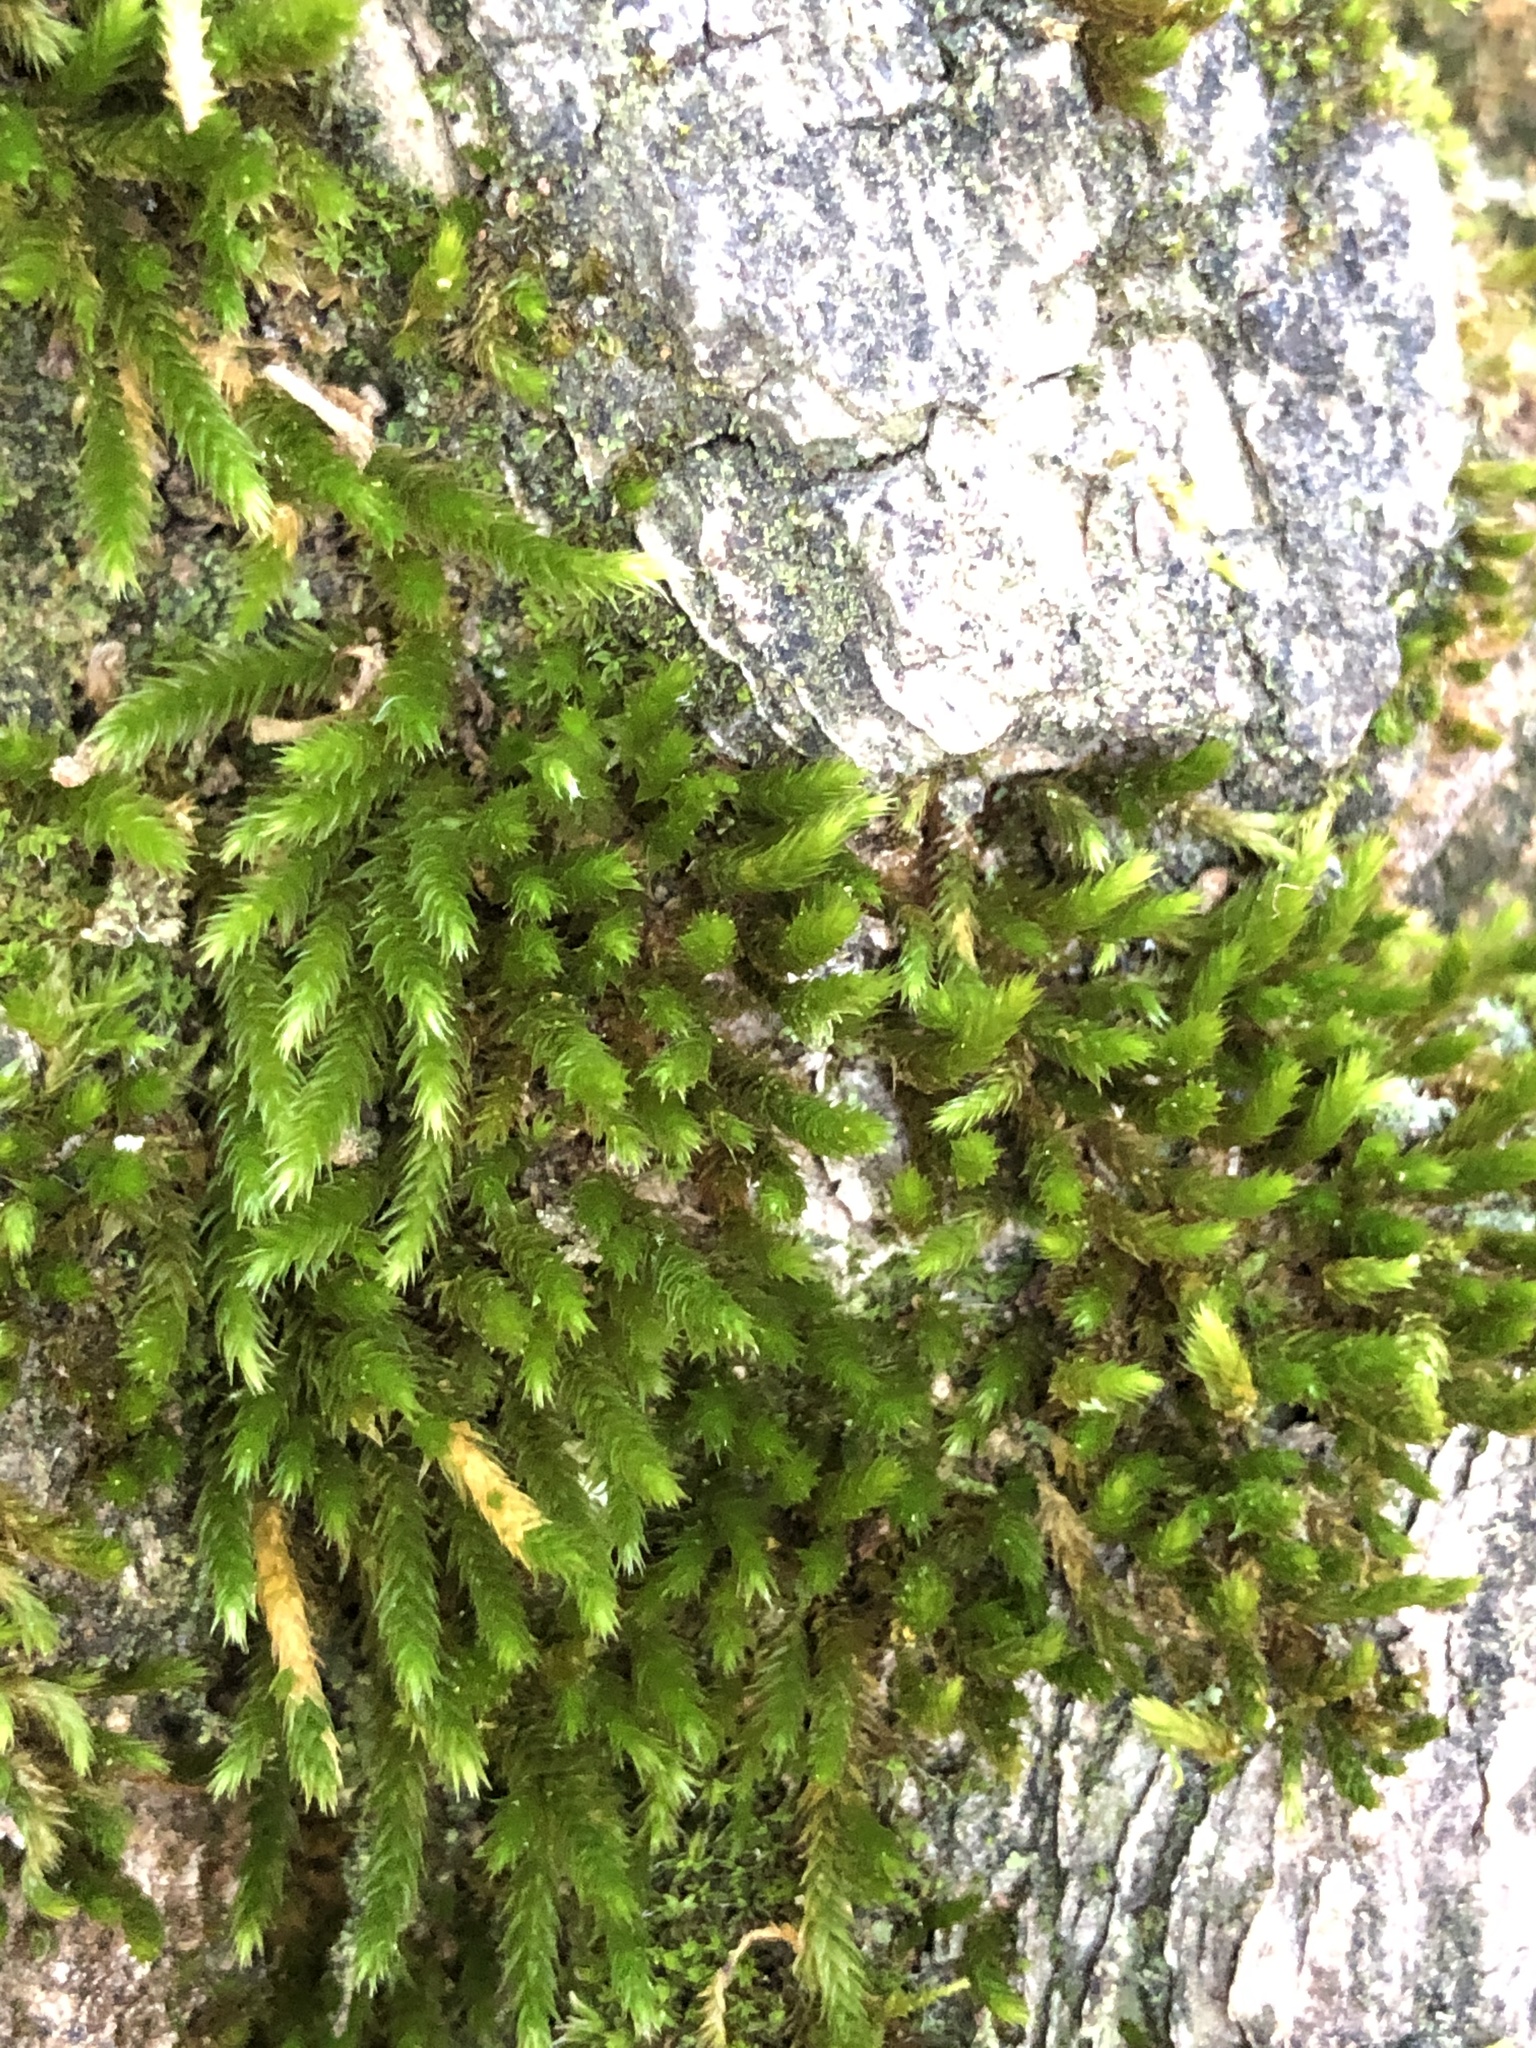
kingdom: Plantae
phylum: Bryophyta
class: Bryopsida
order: Hypnales
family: Leucodontaceae
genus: Leucodon
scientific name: Leucodon sciuroides
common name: Squirrel-tail moss
